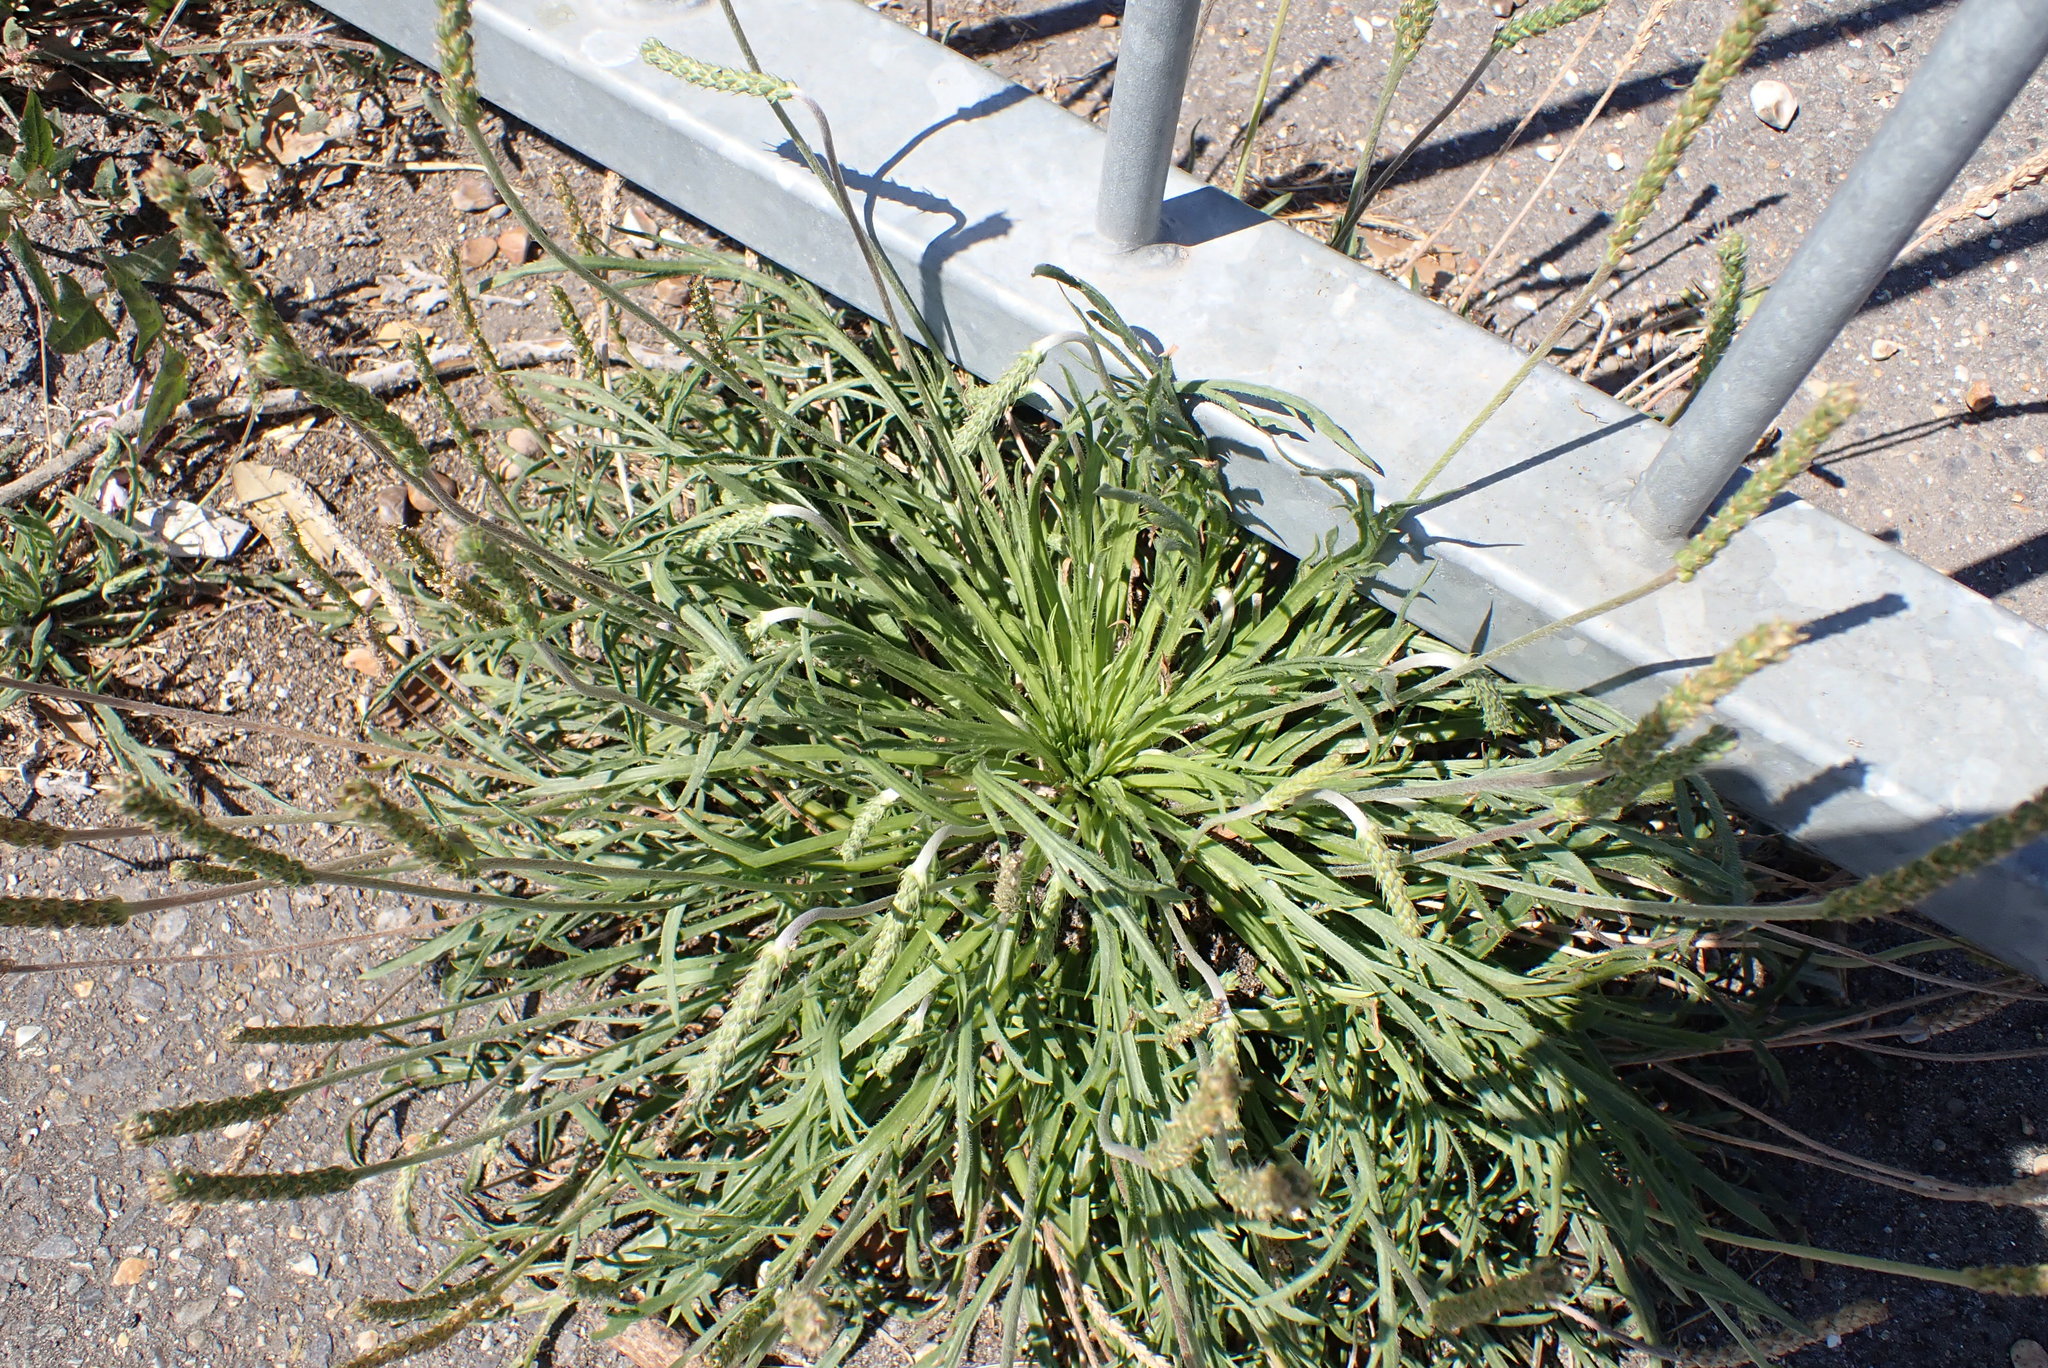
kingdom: Plantae
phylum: Tracheophyta
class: Magnoliopsida
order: Lamiales
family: Plantaginaceae
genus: Plantago
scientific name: Plantago coronopus
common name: Buck's-horn plantain
